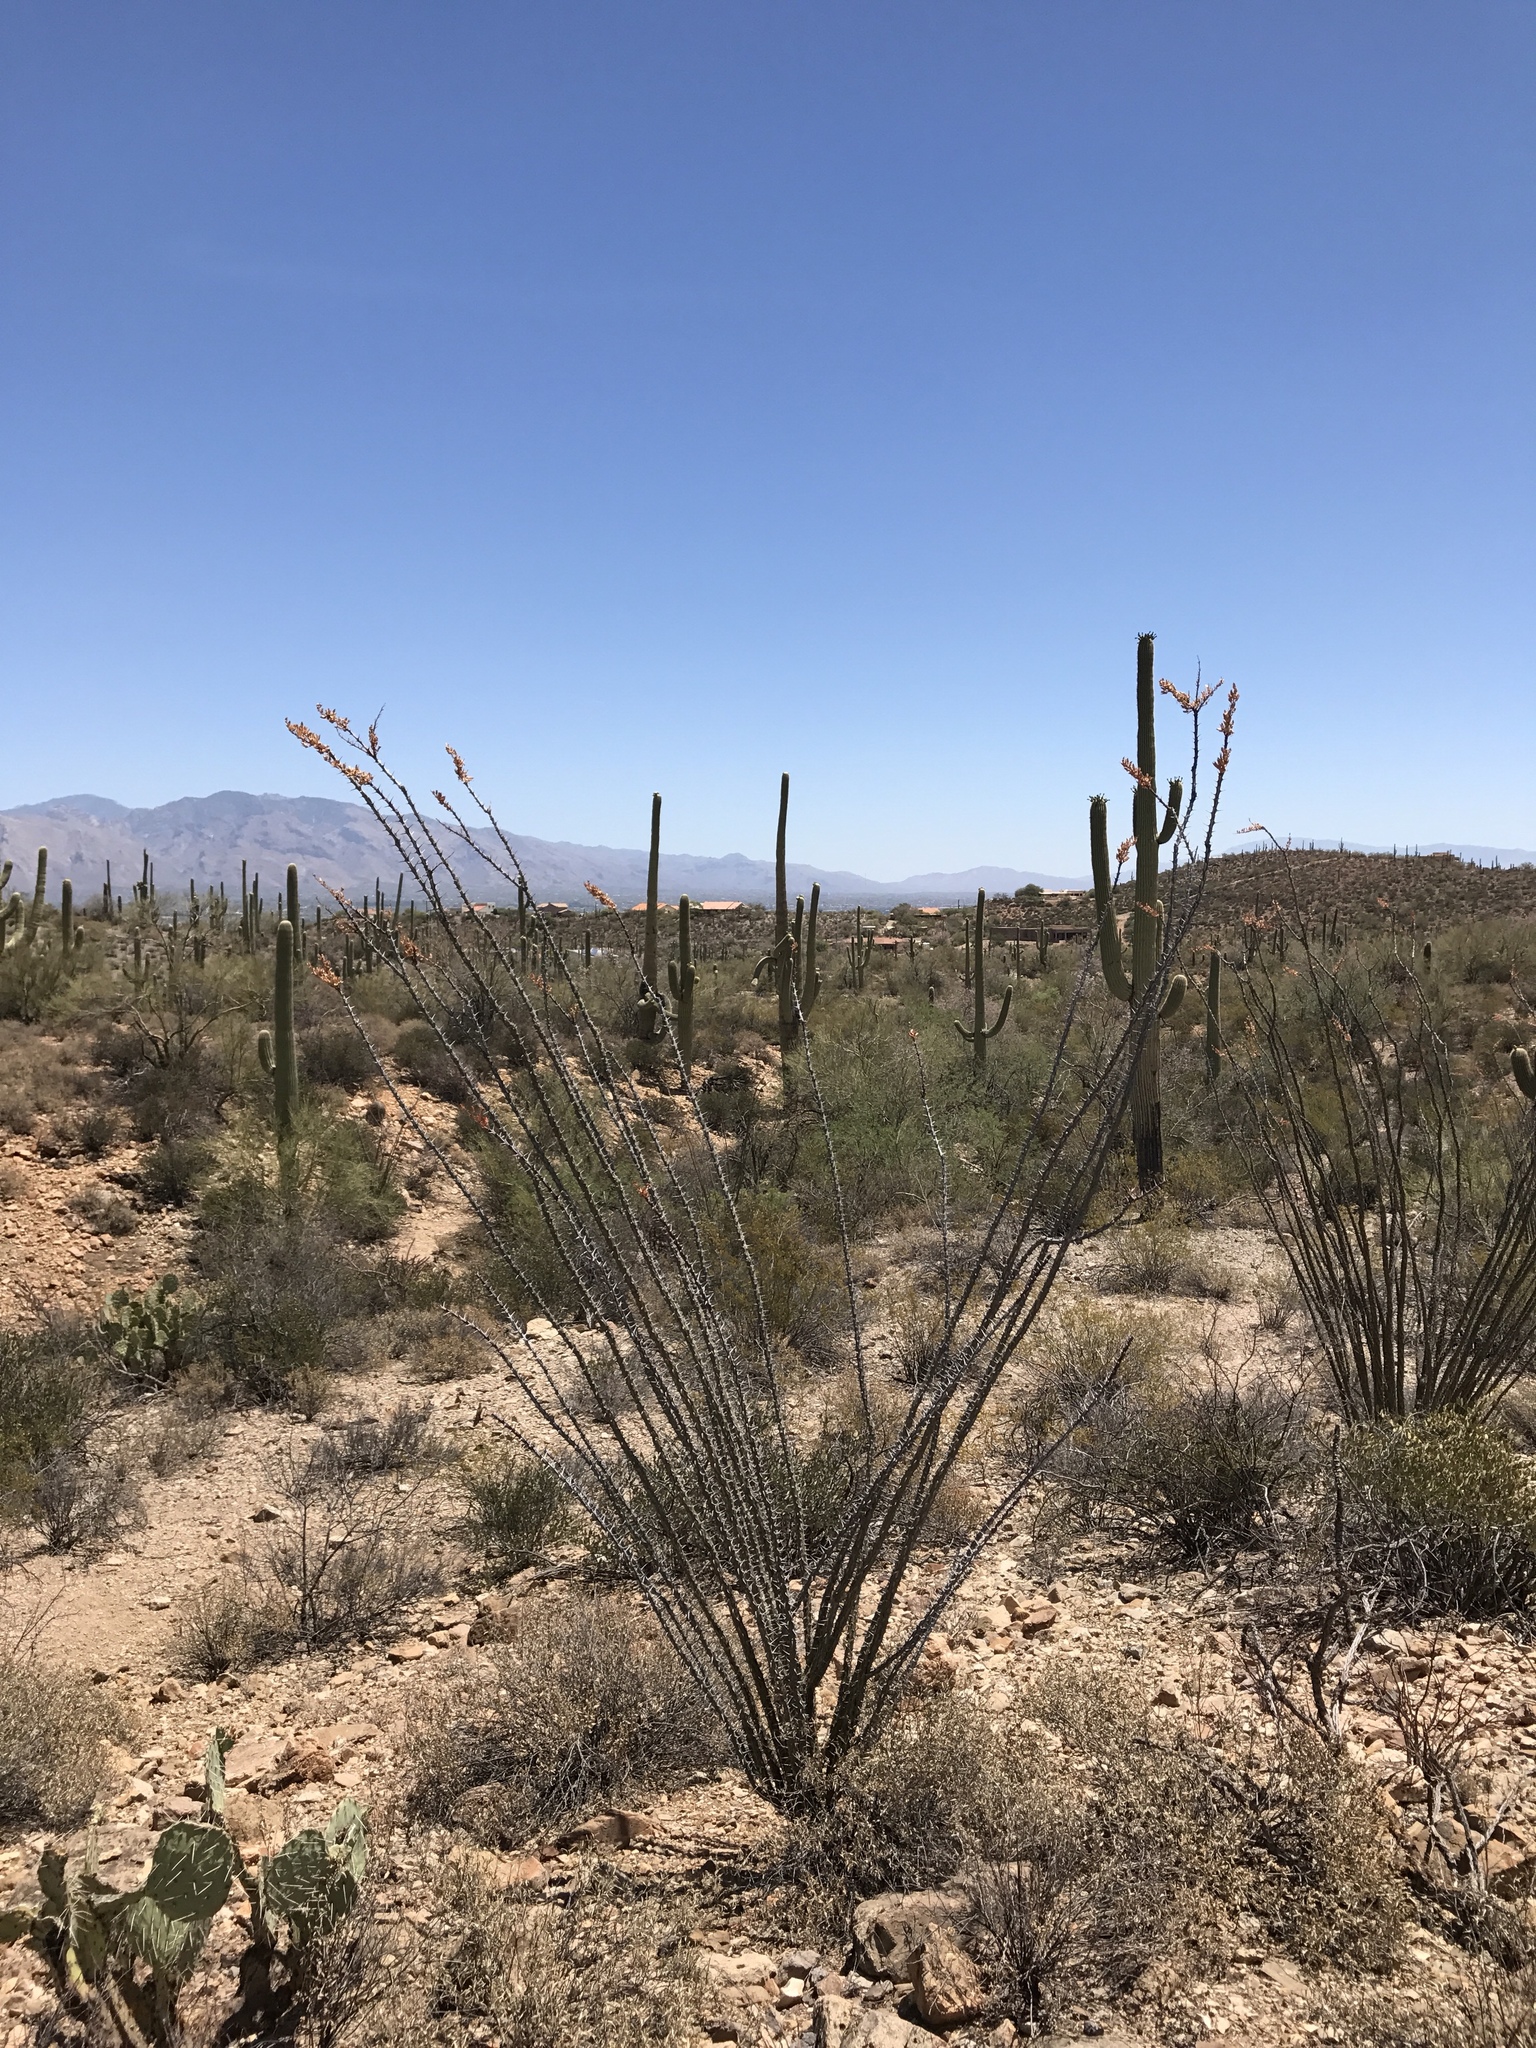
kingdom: Plantae
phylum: Tracheophyta
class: Magnoliopsida
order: Ericales
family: Fouquieriaceae
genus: Fouquieria
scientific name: Fouquieria splendens
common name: Vine-cactus
